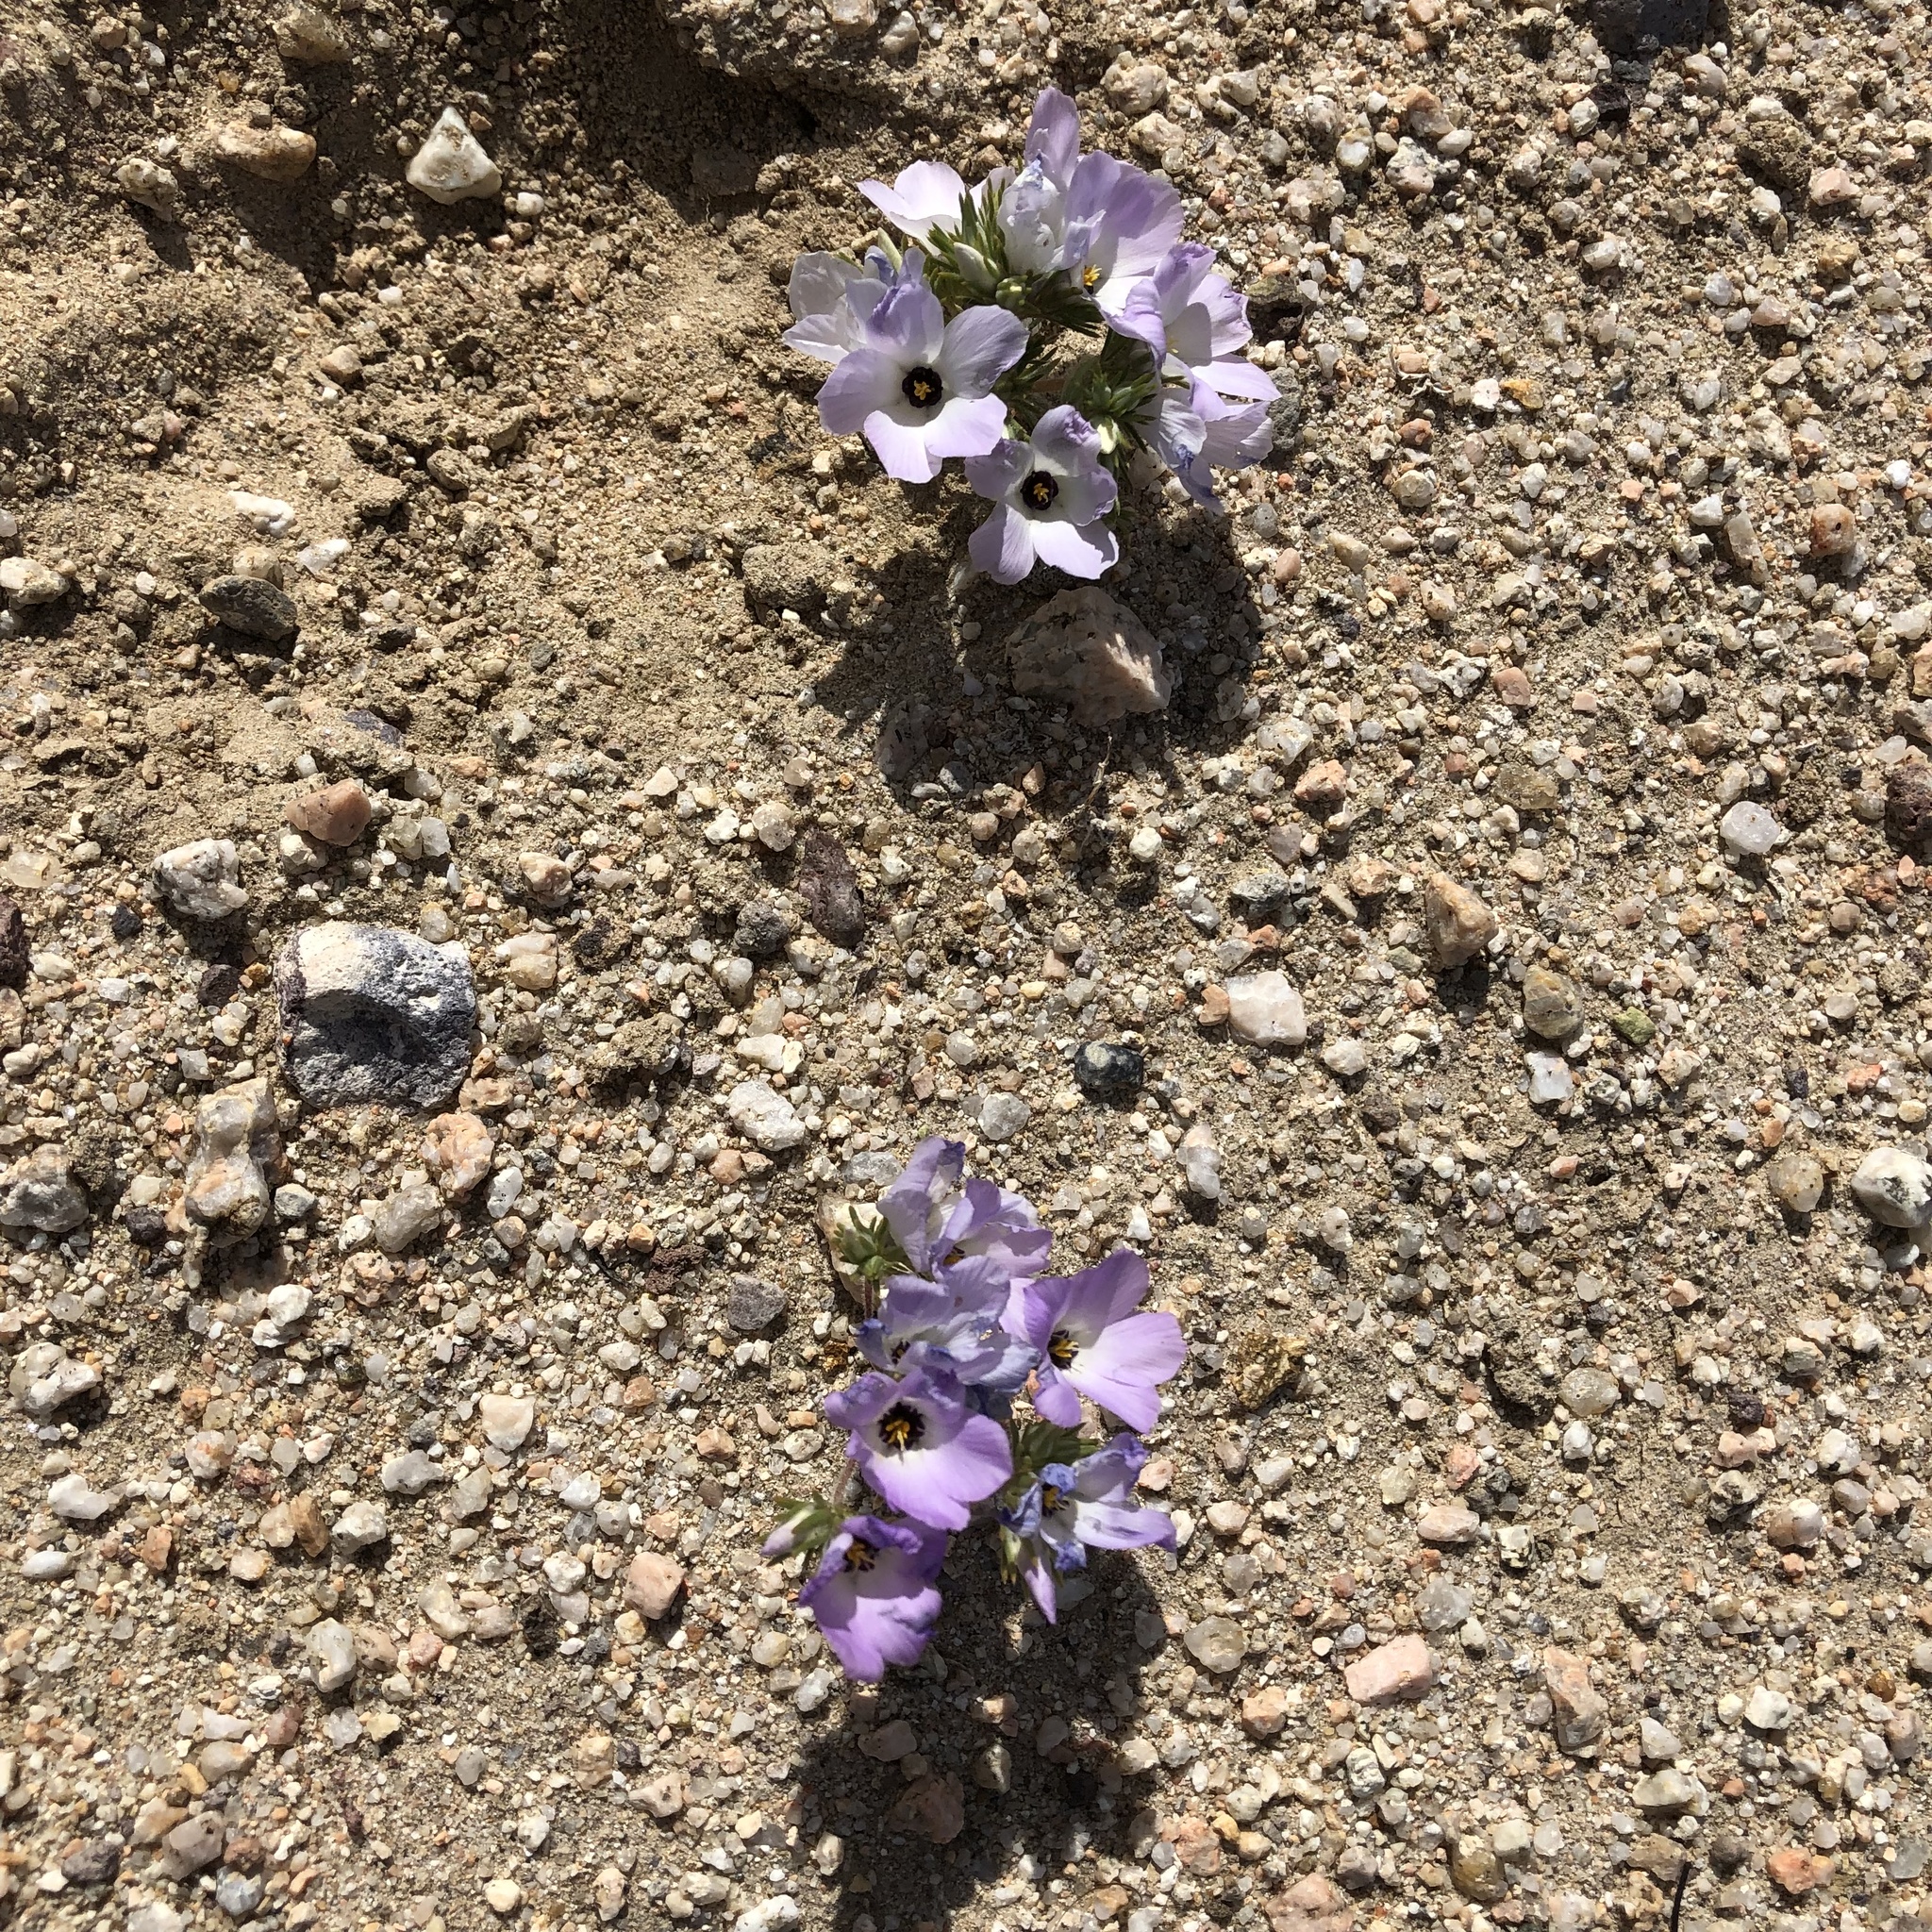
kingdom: Plantae
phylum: Tracheophyta
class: Magnoliopsida
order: Ericales
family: Polemoniaceae
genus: Linanthus
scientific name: Linanthus parryae
